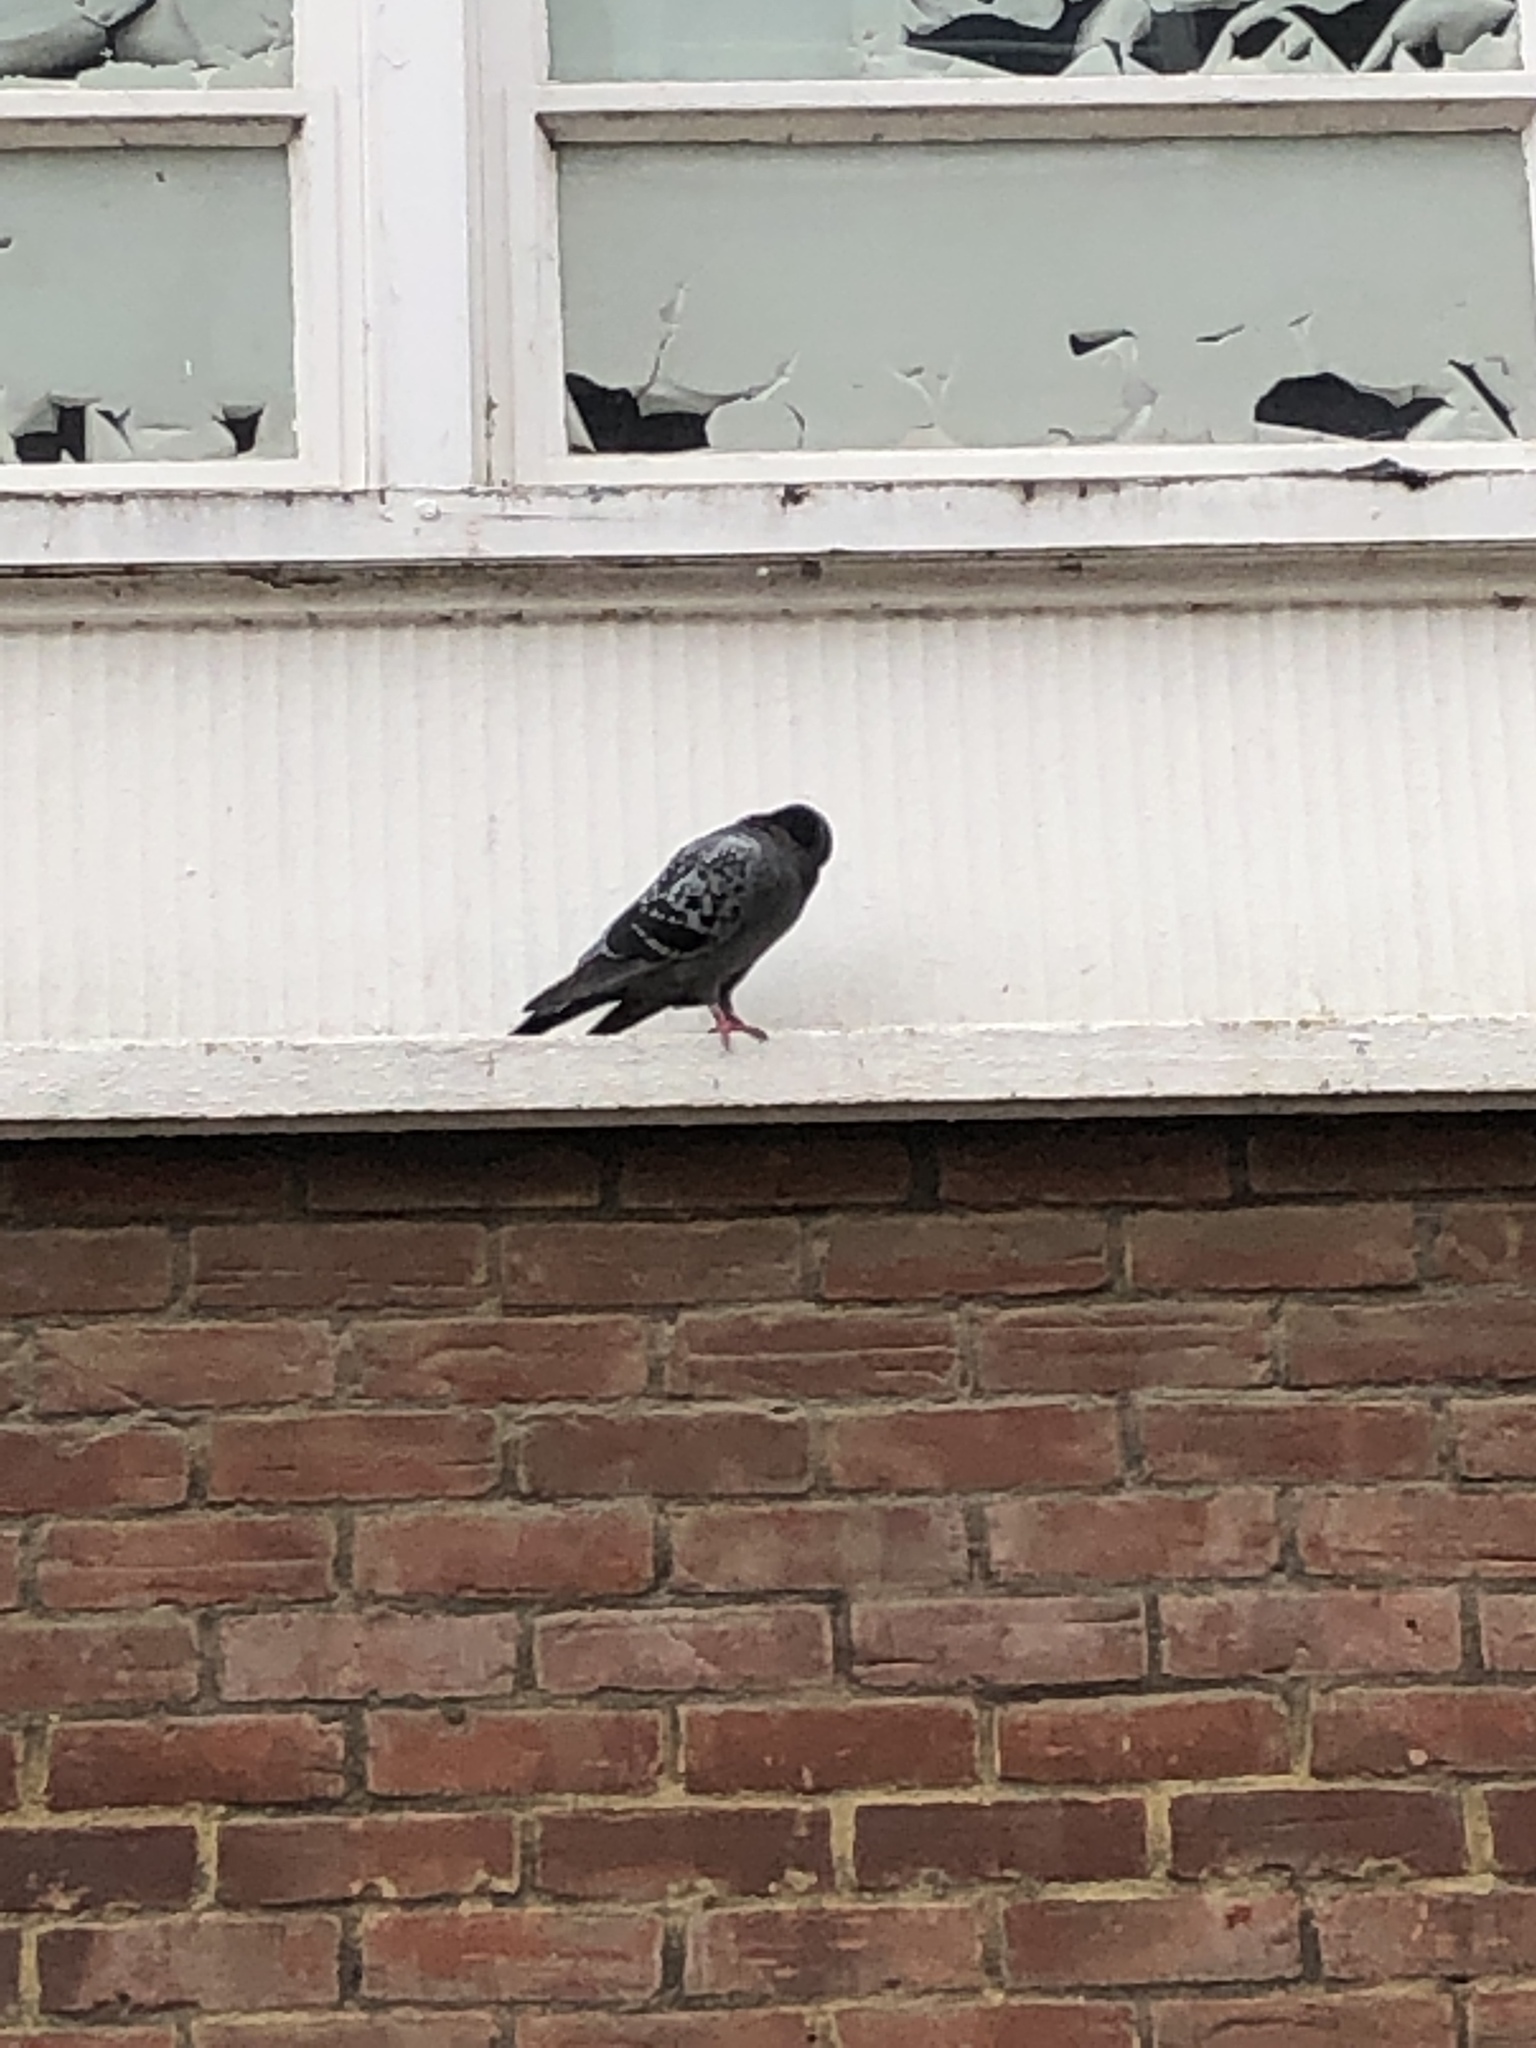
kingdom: Animalia
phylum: Chordata
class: Aves
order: Columbiformes
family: Columbidae
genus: Columba
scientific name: Columba livia
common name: Rock pigeon
